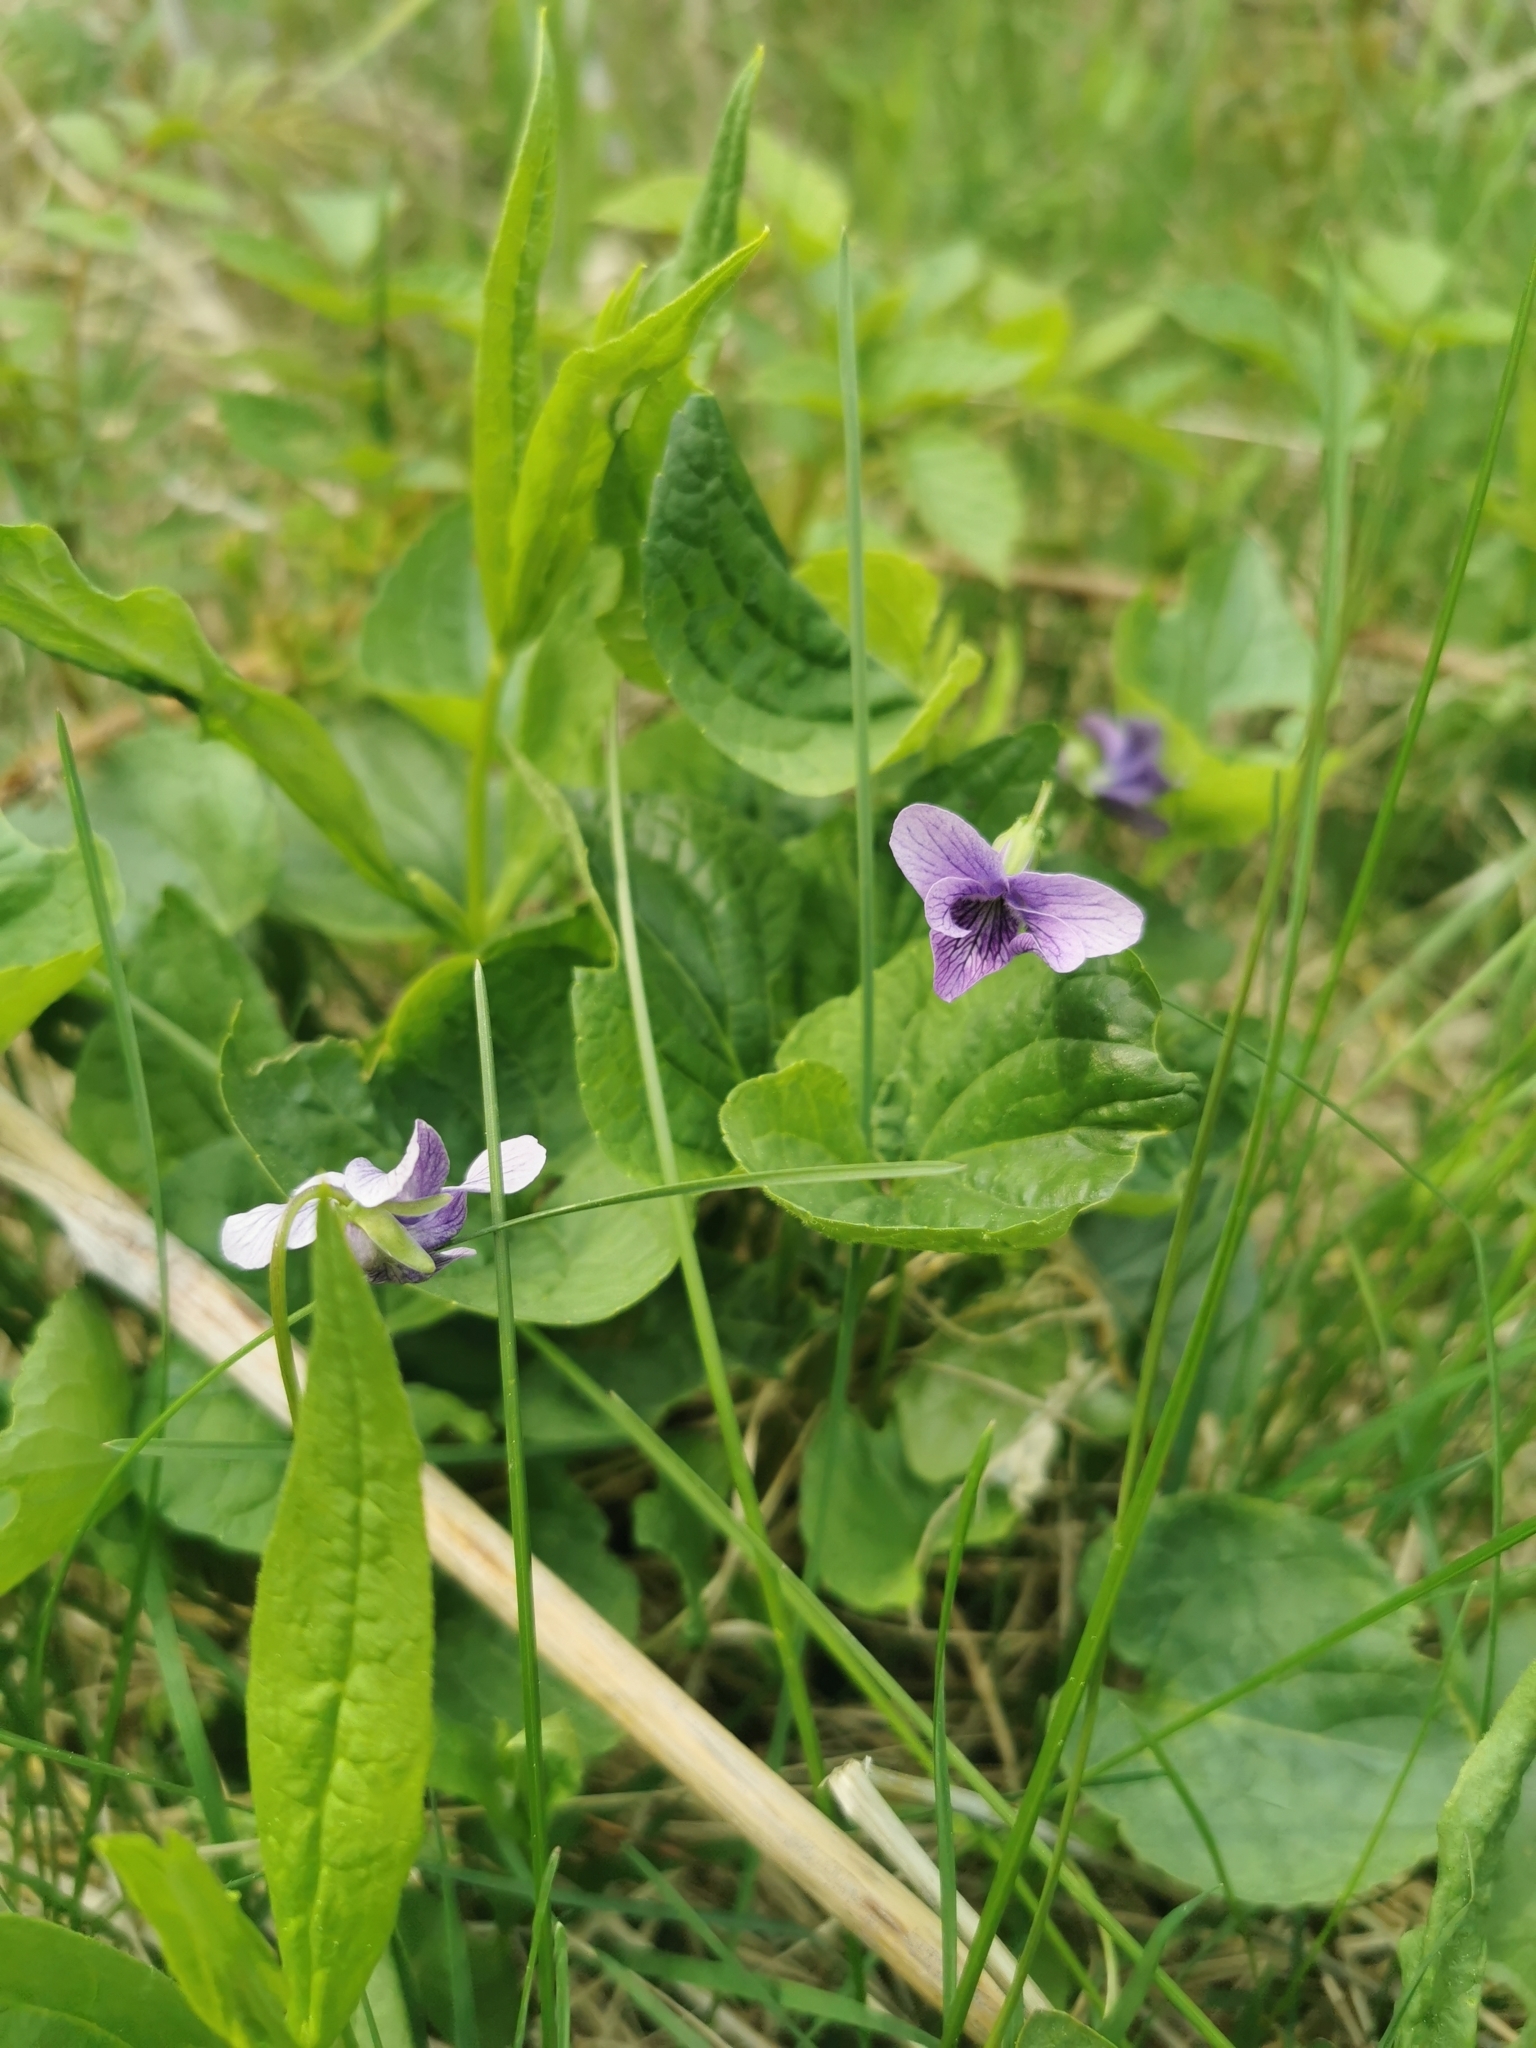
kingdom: Plantae
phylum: Tracheophyta
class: Magnoliopsida
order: Malpighiales
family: Violaceae
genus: Viola
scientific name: Viola langsdorfii
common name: Alaska violet
